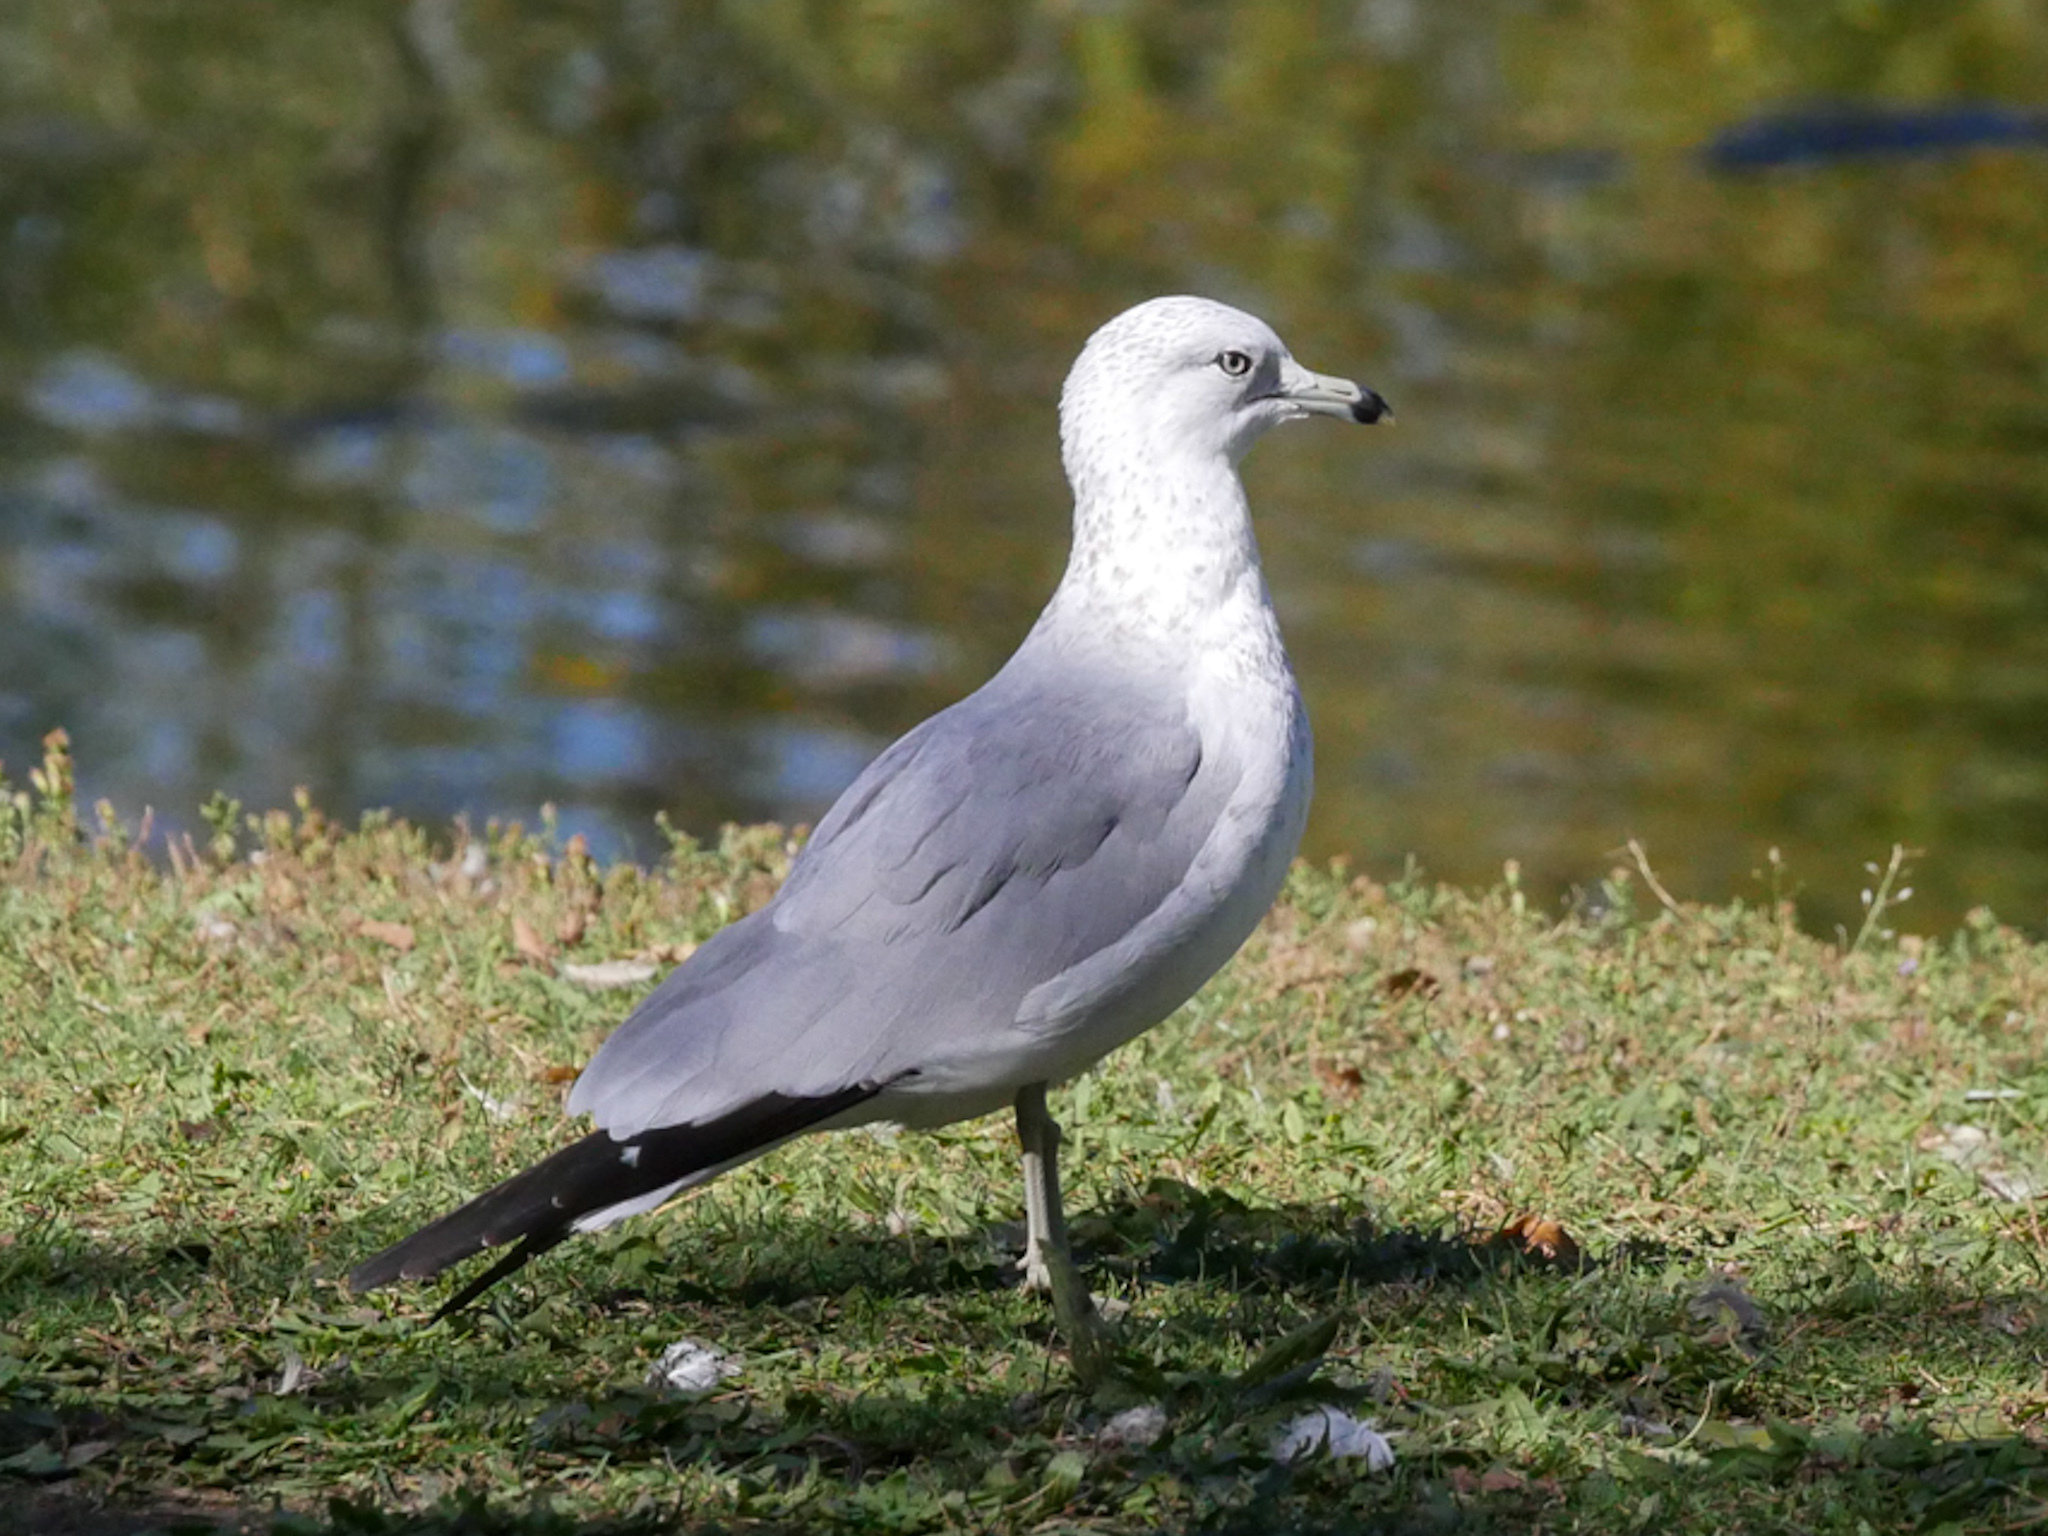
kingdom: Animalia
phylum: Chordata
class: Aves
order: Charadriiformes
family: Laridae
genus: Larus
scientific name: Larus delawarensis
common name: Ring-billed gull
